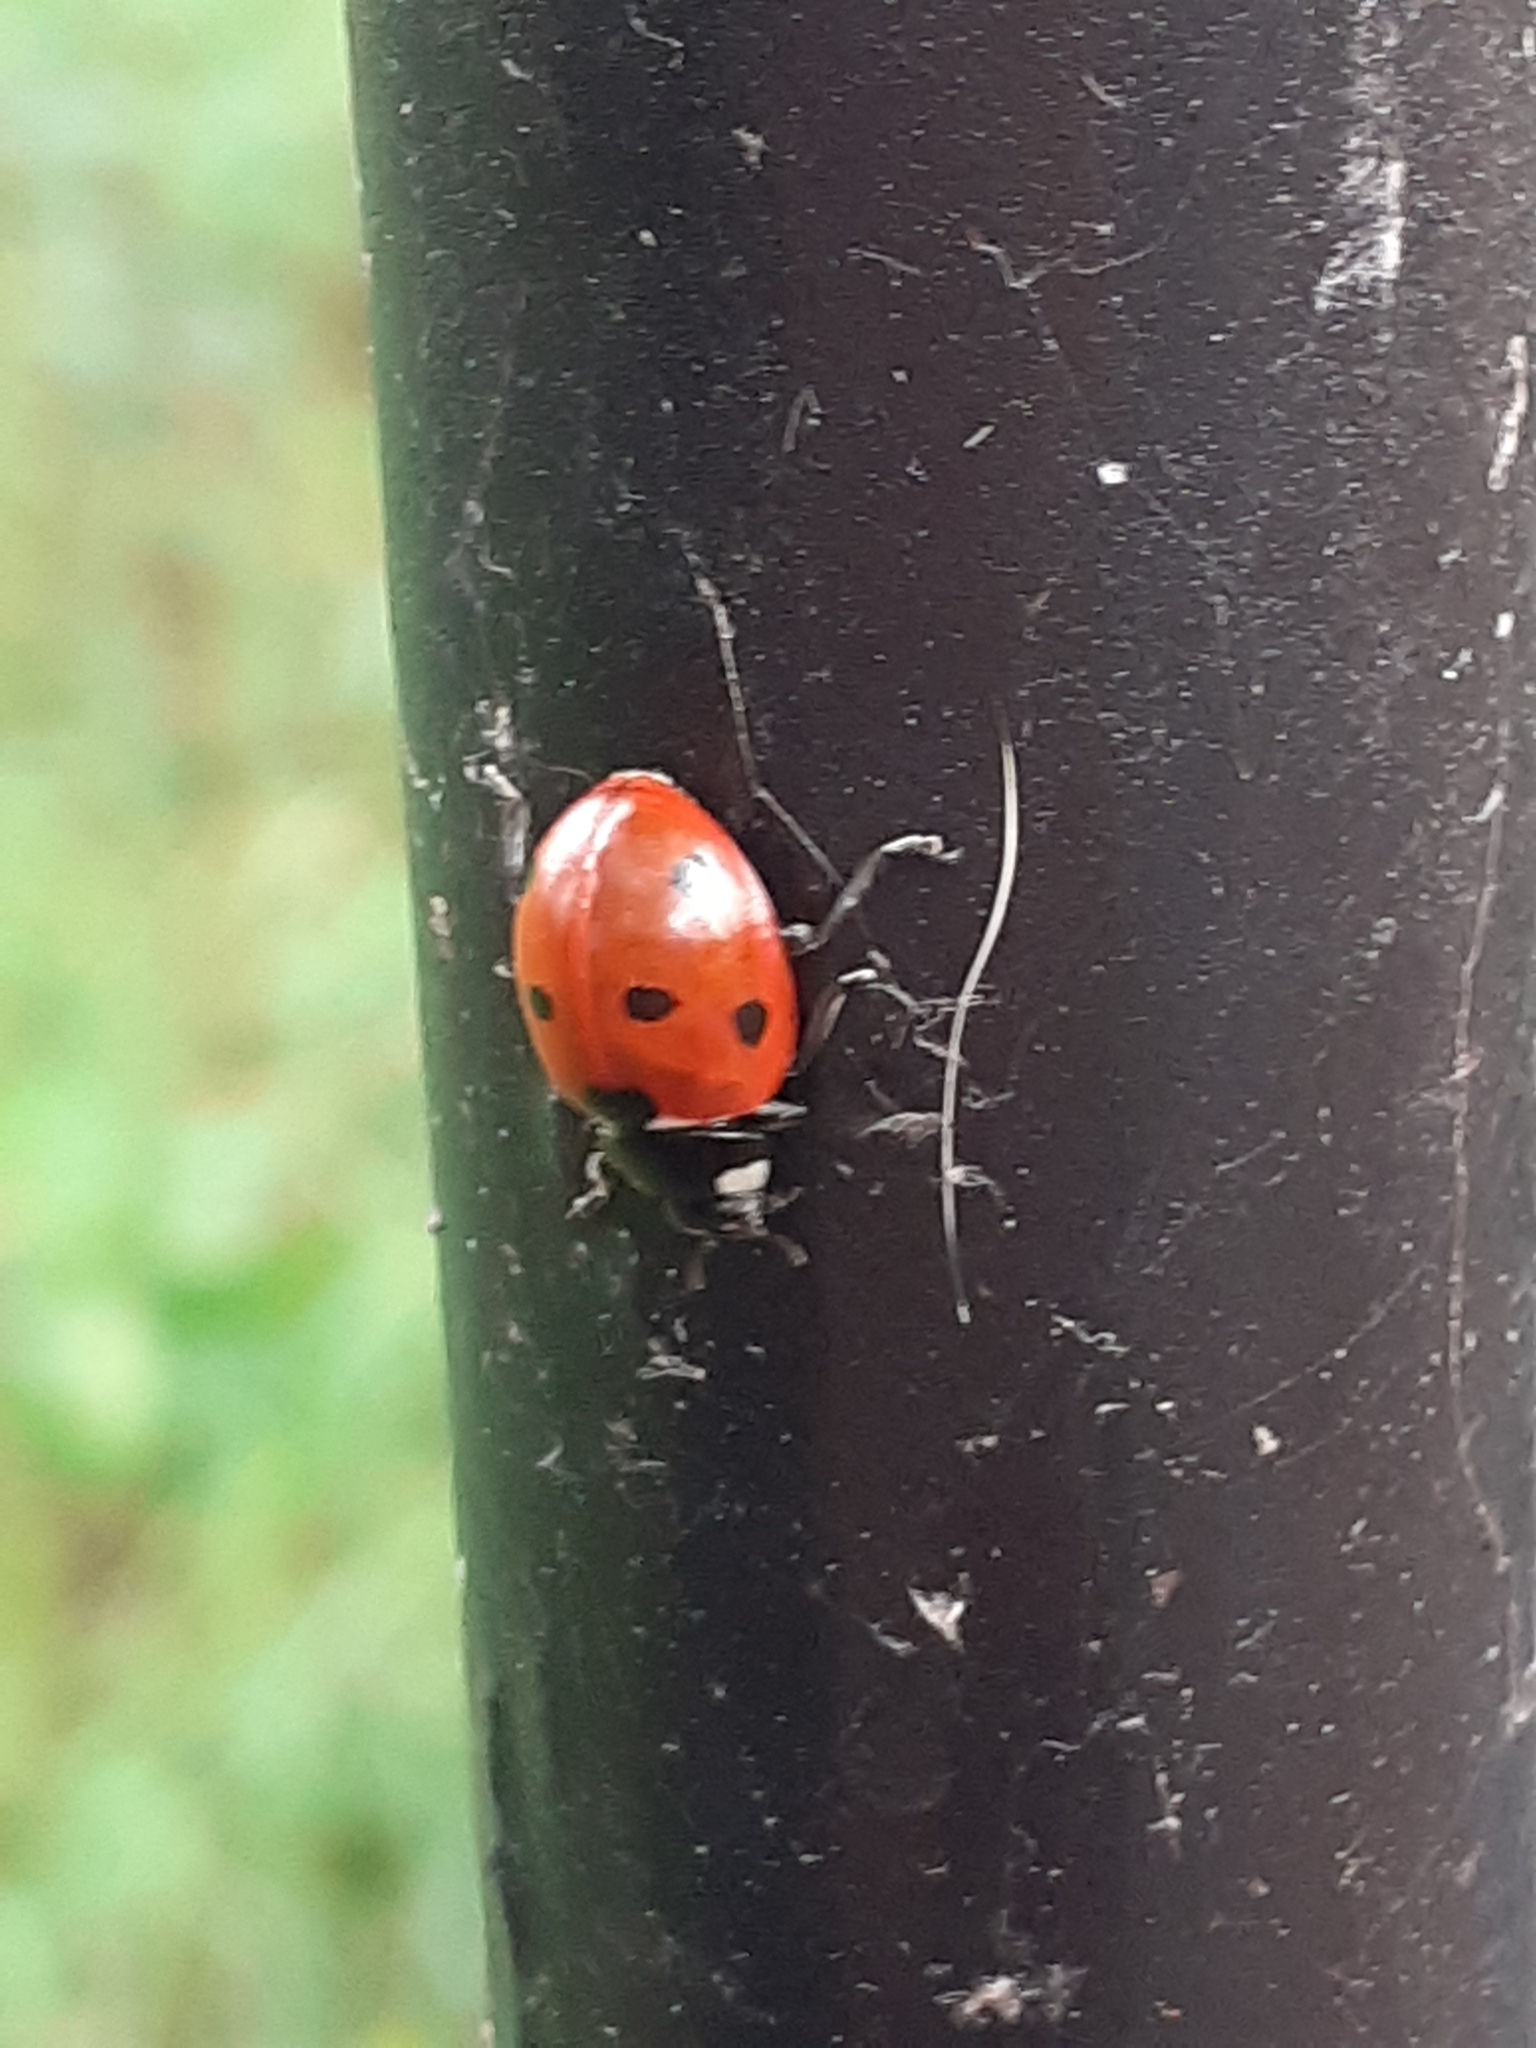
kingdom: Animalia
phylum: Arthropoda
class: Insecta
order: Coleoptera
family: Coccinellidae
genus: Coccinella
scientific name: Coccinella septempunctata
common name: Sevenspotted lady beetle
